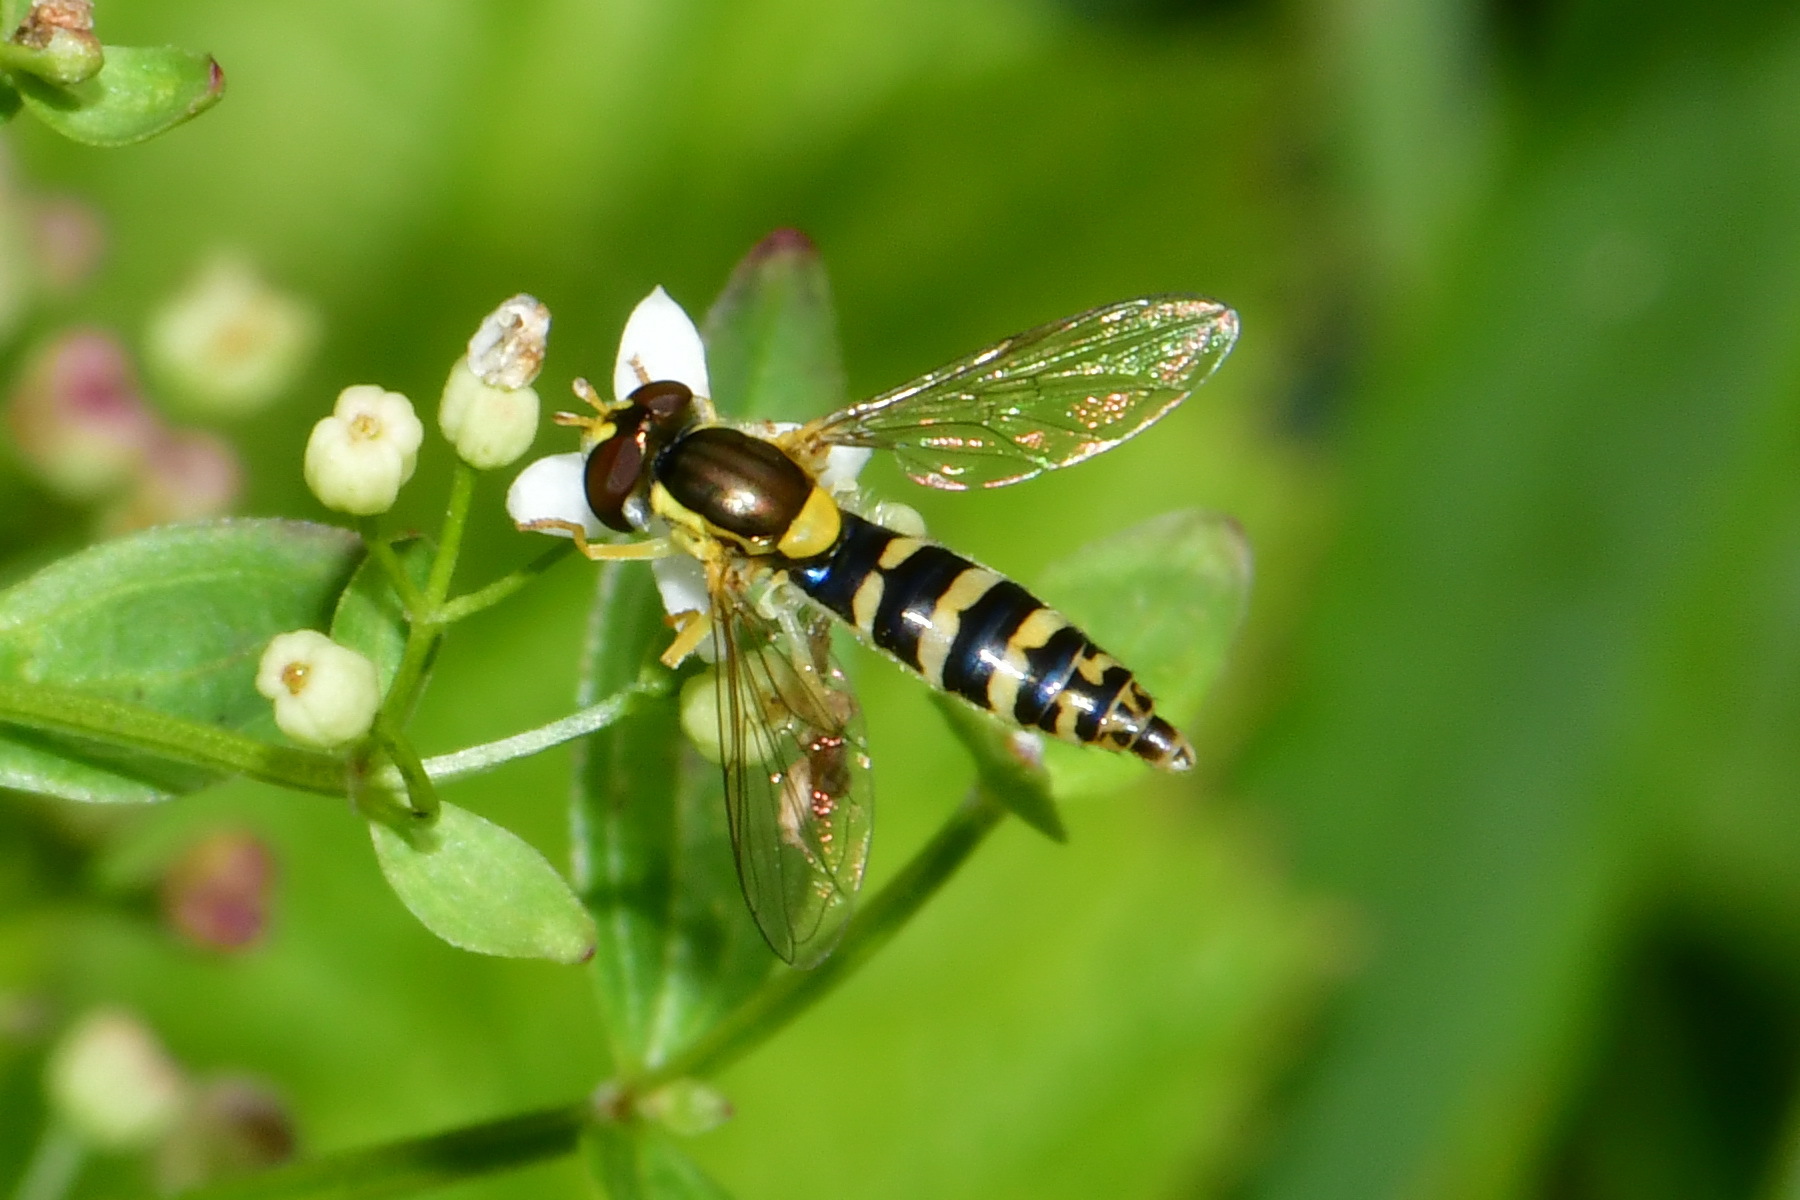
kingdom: Animalia
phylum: Arthropoda
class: Insecta
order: Diptera
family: Syrphidae
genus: Sphaerophoria
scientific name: Sphaerophoria
